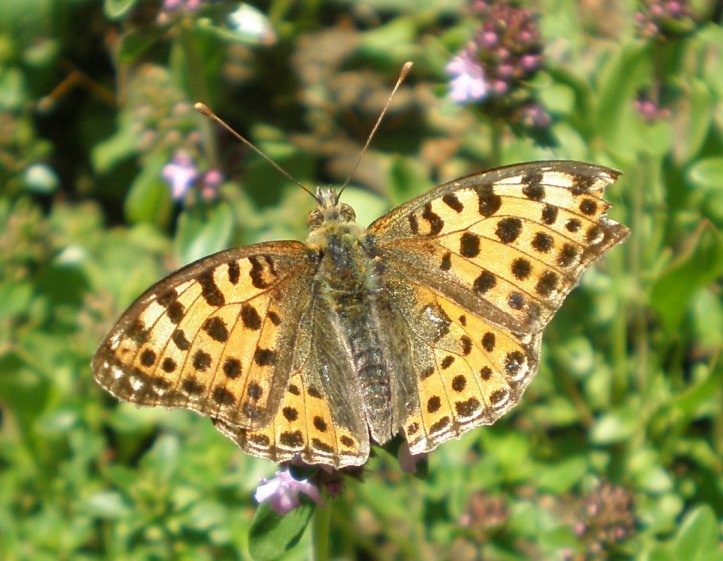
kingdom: Animalia
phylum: Arthropoda
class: Insecta
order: Lepidoptera
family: Nymphalidae
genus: Issoria
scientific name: Issoria lathonia
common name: Queen of spain fritillary
